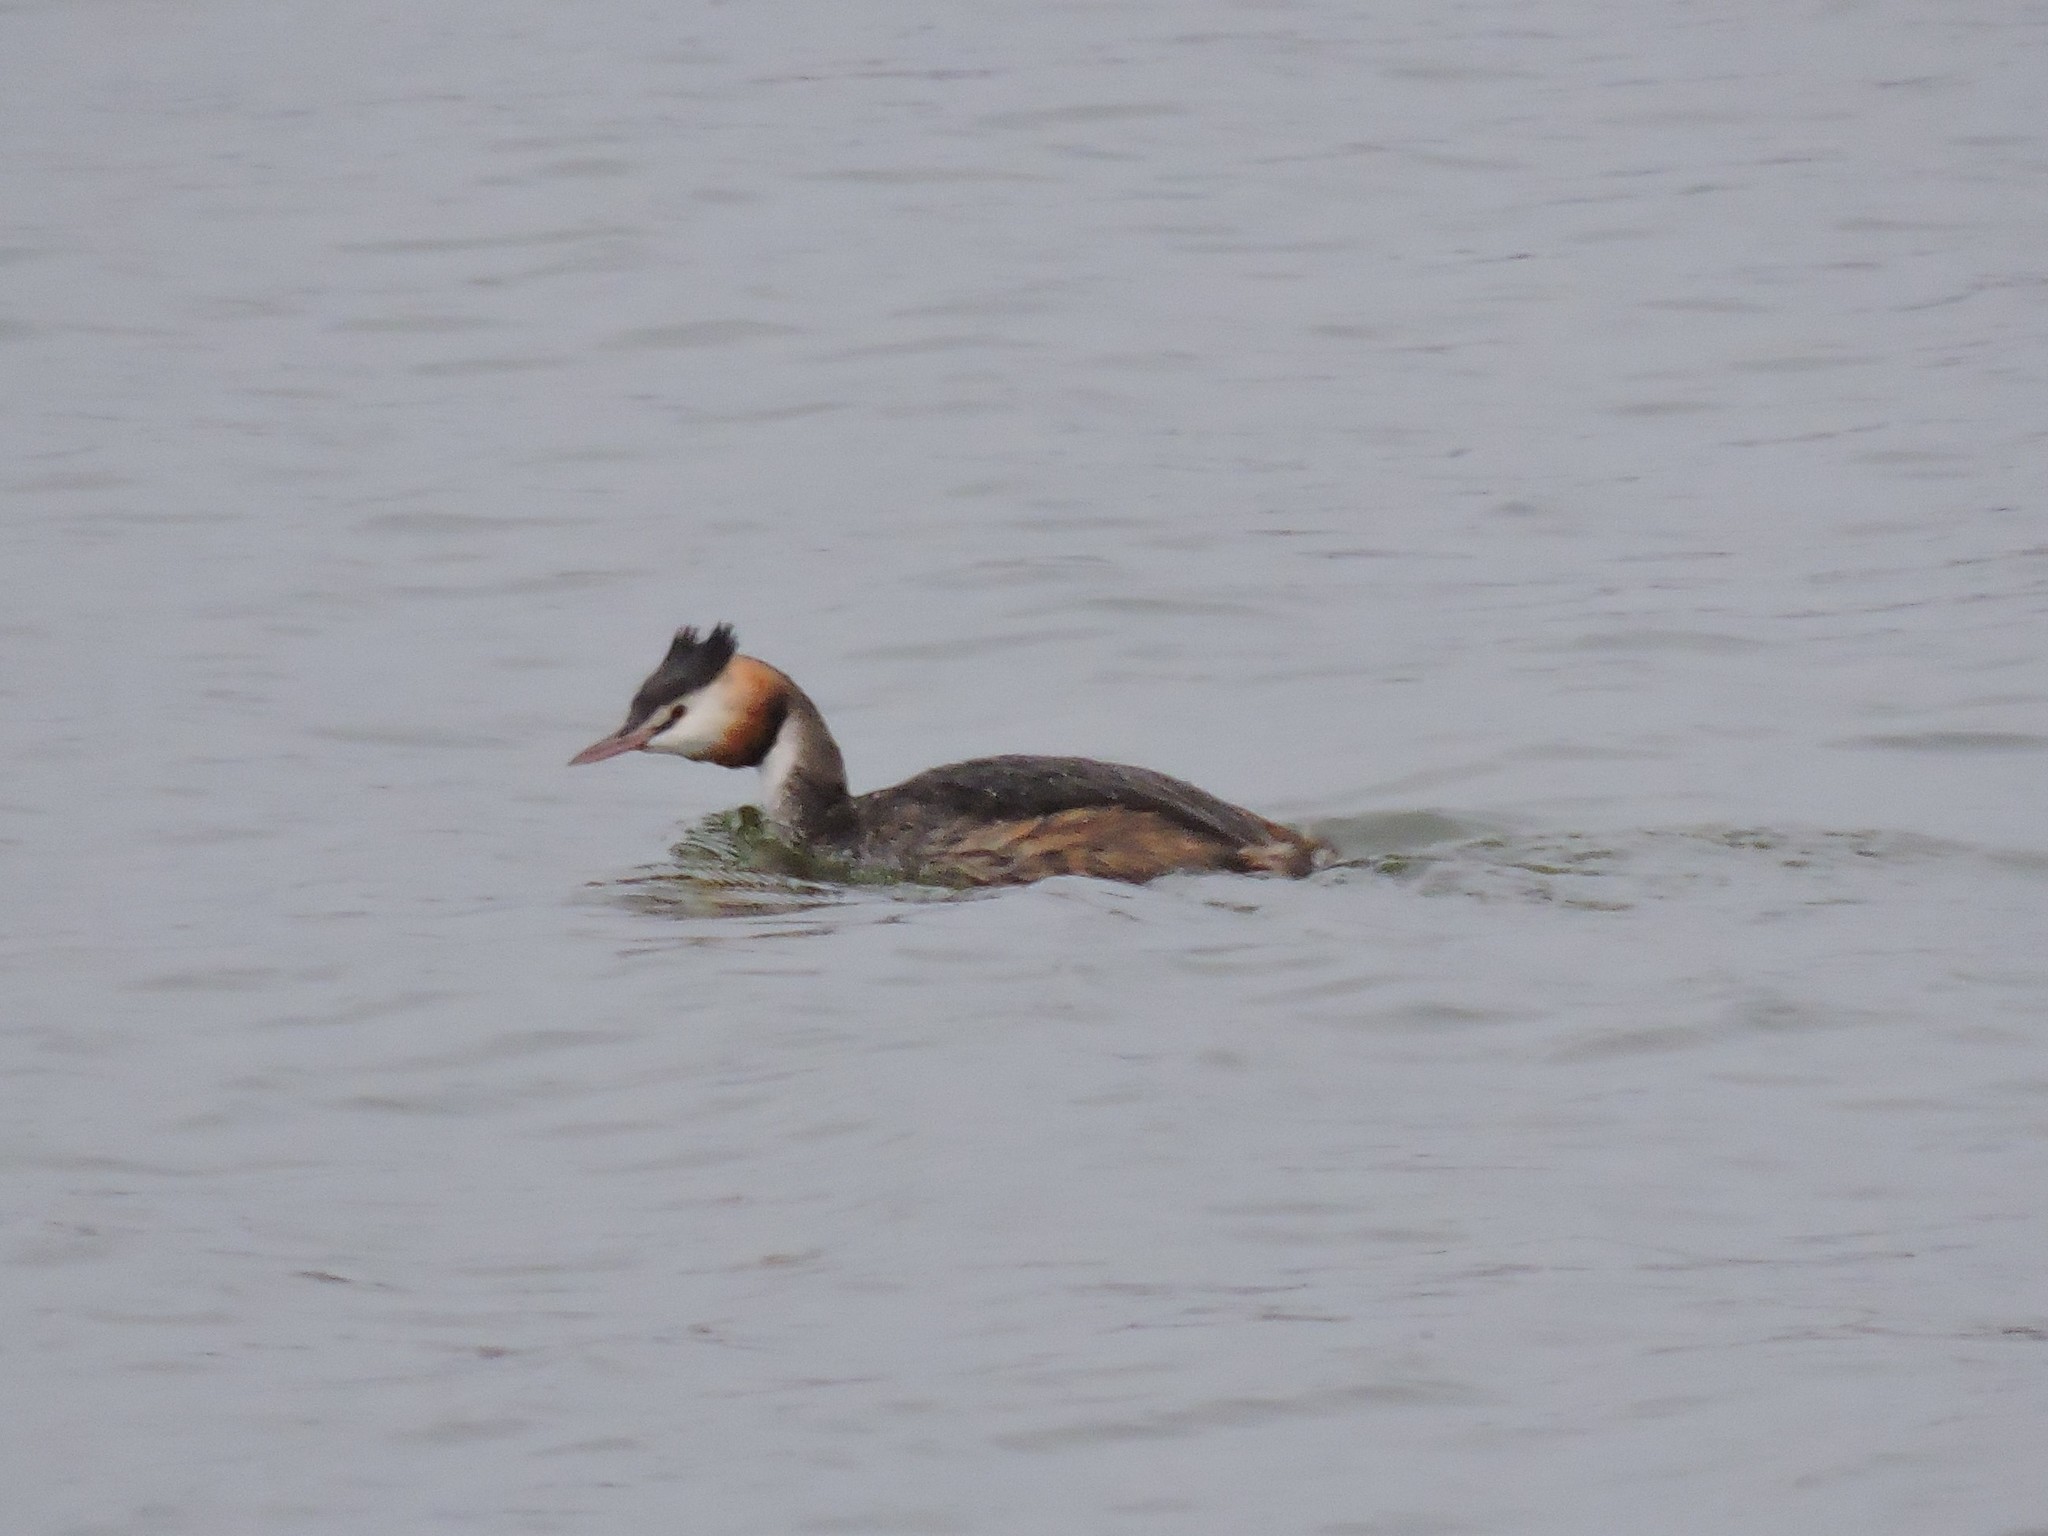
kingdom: Animalia
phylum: Chordata
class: Aves
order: Podicipediformes
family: Podicipedidae
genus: Podiceps
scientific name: Podiceps cristatus
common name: Great crested grebe
